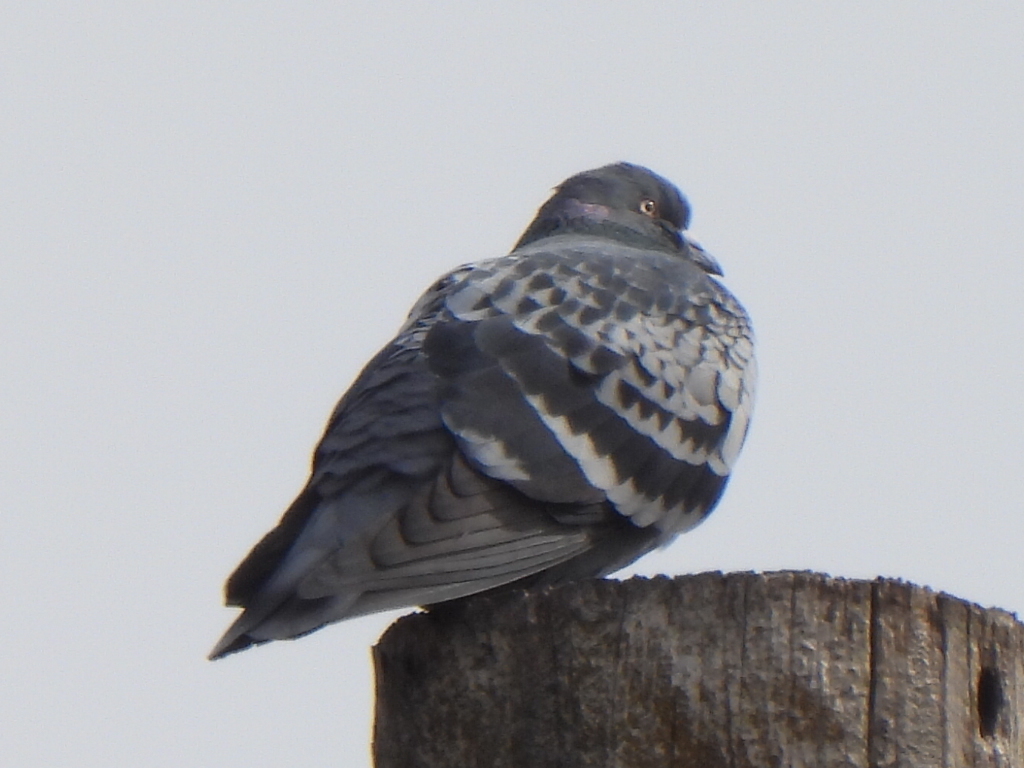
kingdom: Animalia
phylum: Chordata
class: Aves
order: Columbiformes
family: Columbidae
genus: Columba
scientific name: Columba livia
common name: Rock pigeon
